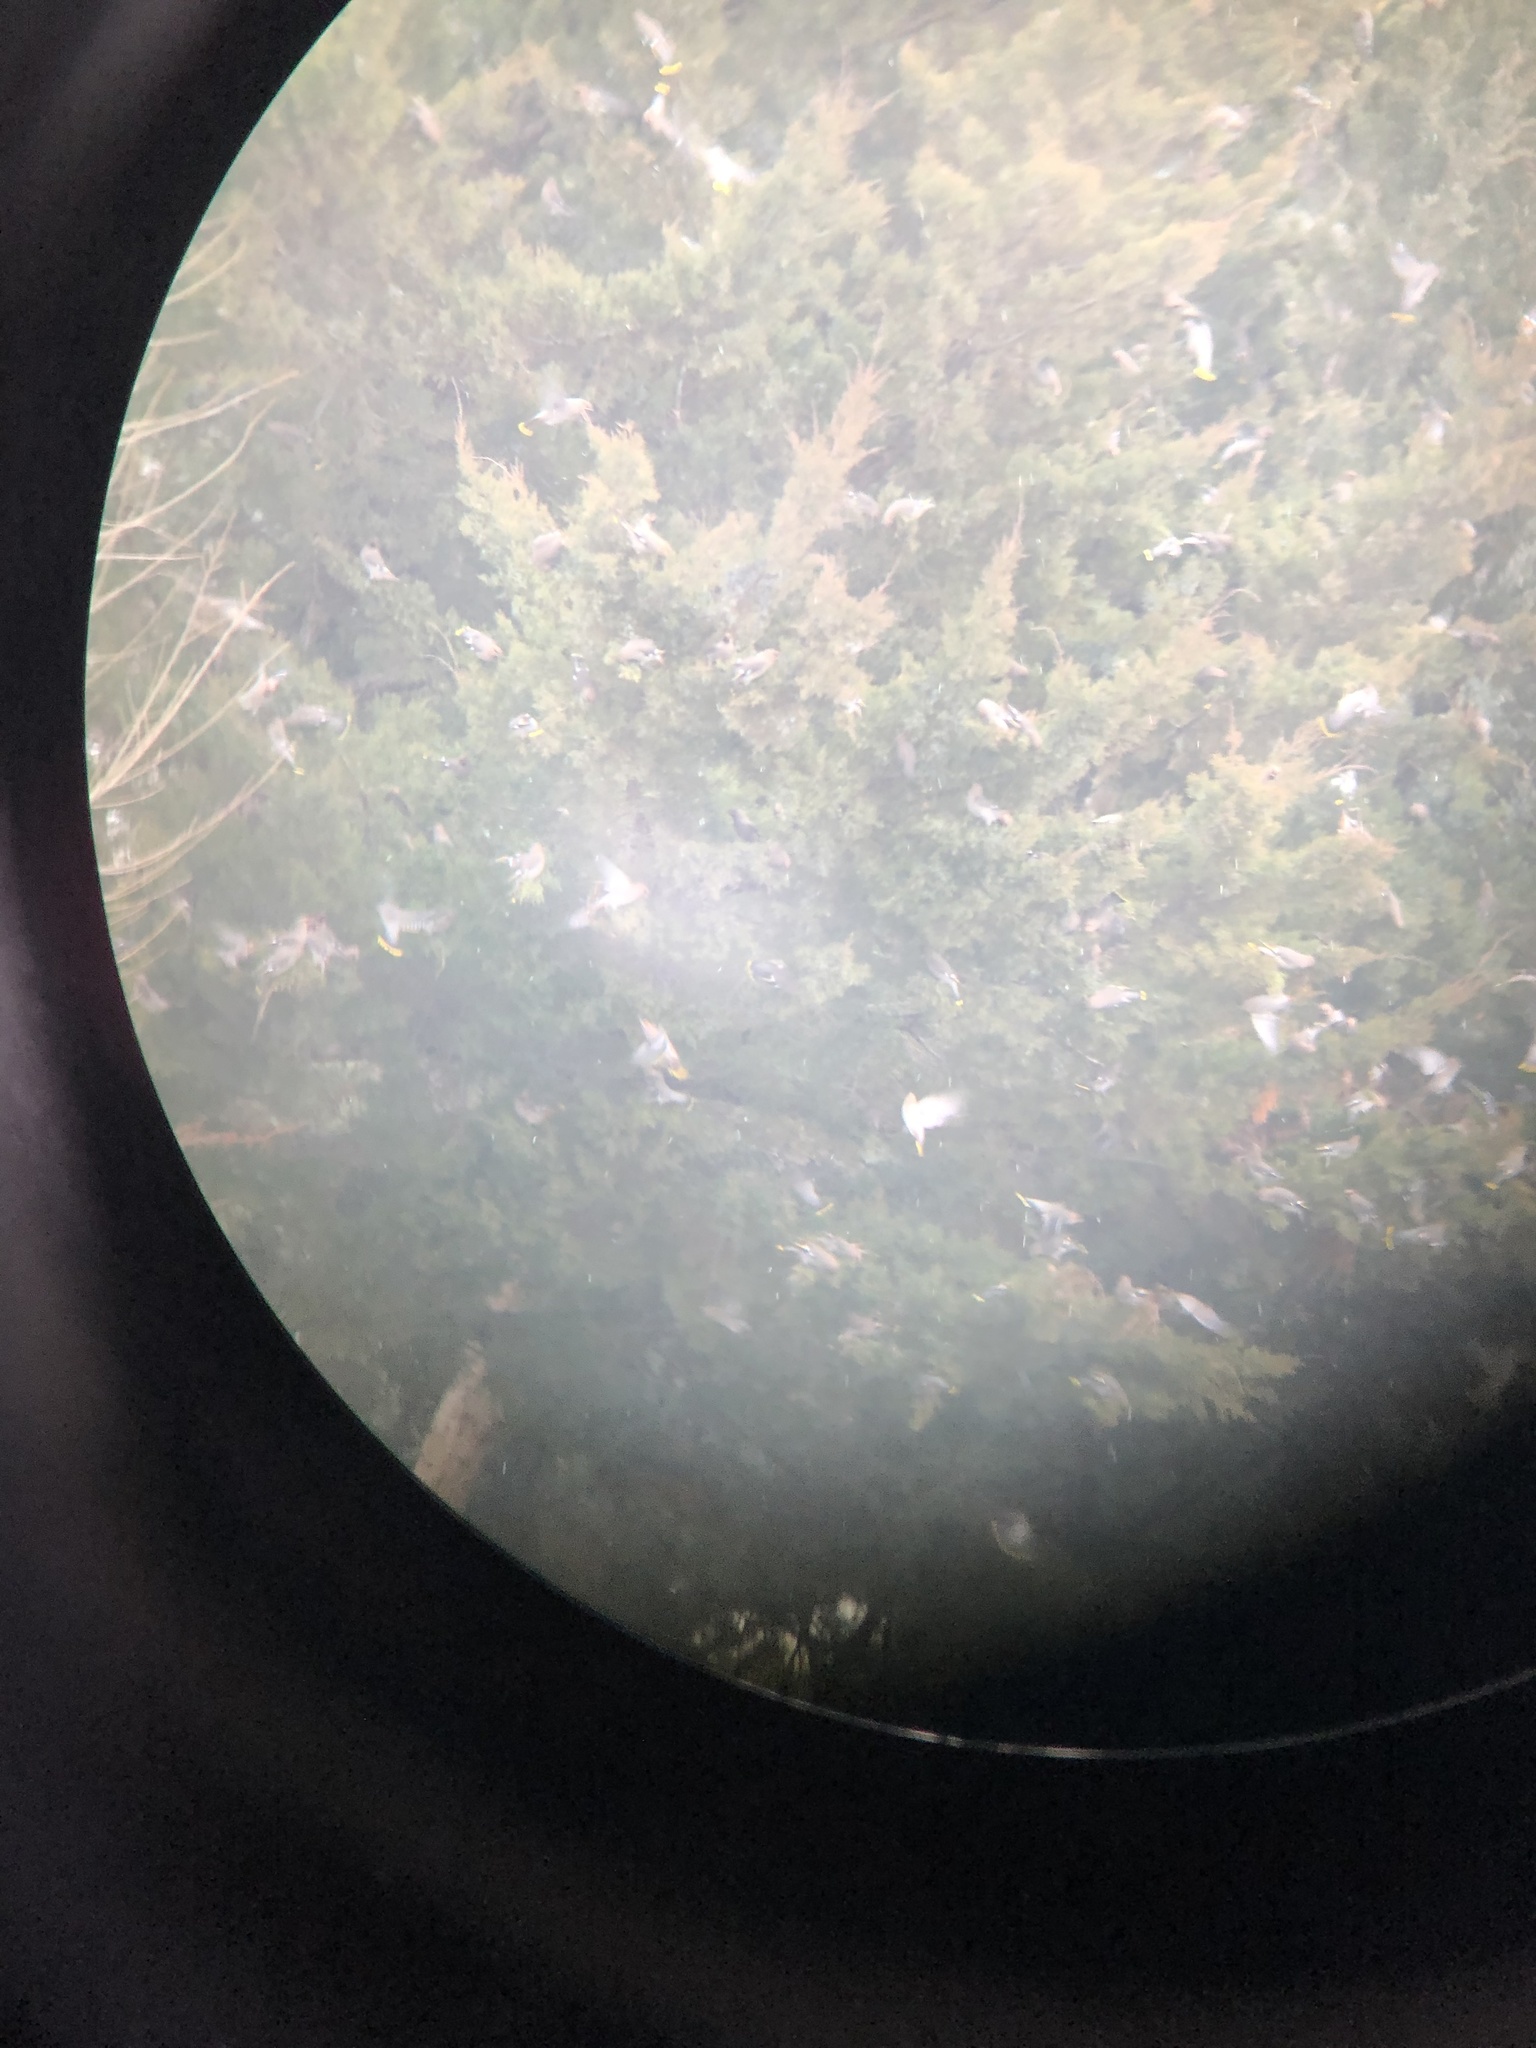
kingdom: Animalia
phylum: Chordata
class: Aves
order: Passeriformes
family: Bombycillidae
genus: Bombycilla
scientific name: Bombycilla garrulus
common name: Bohemian waxwing
